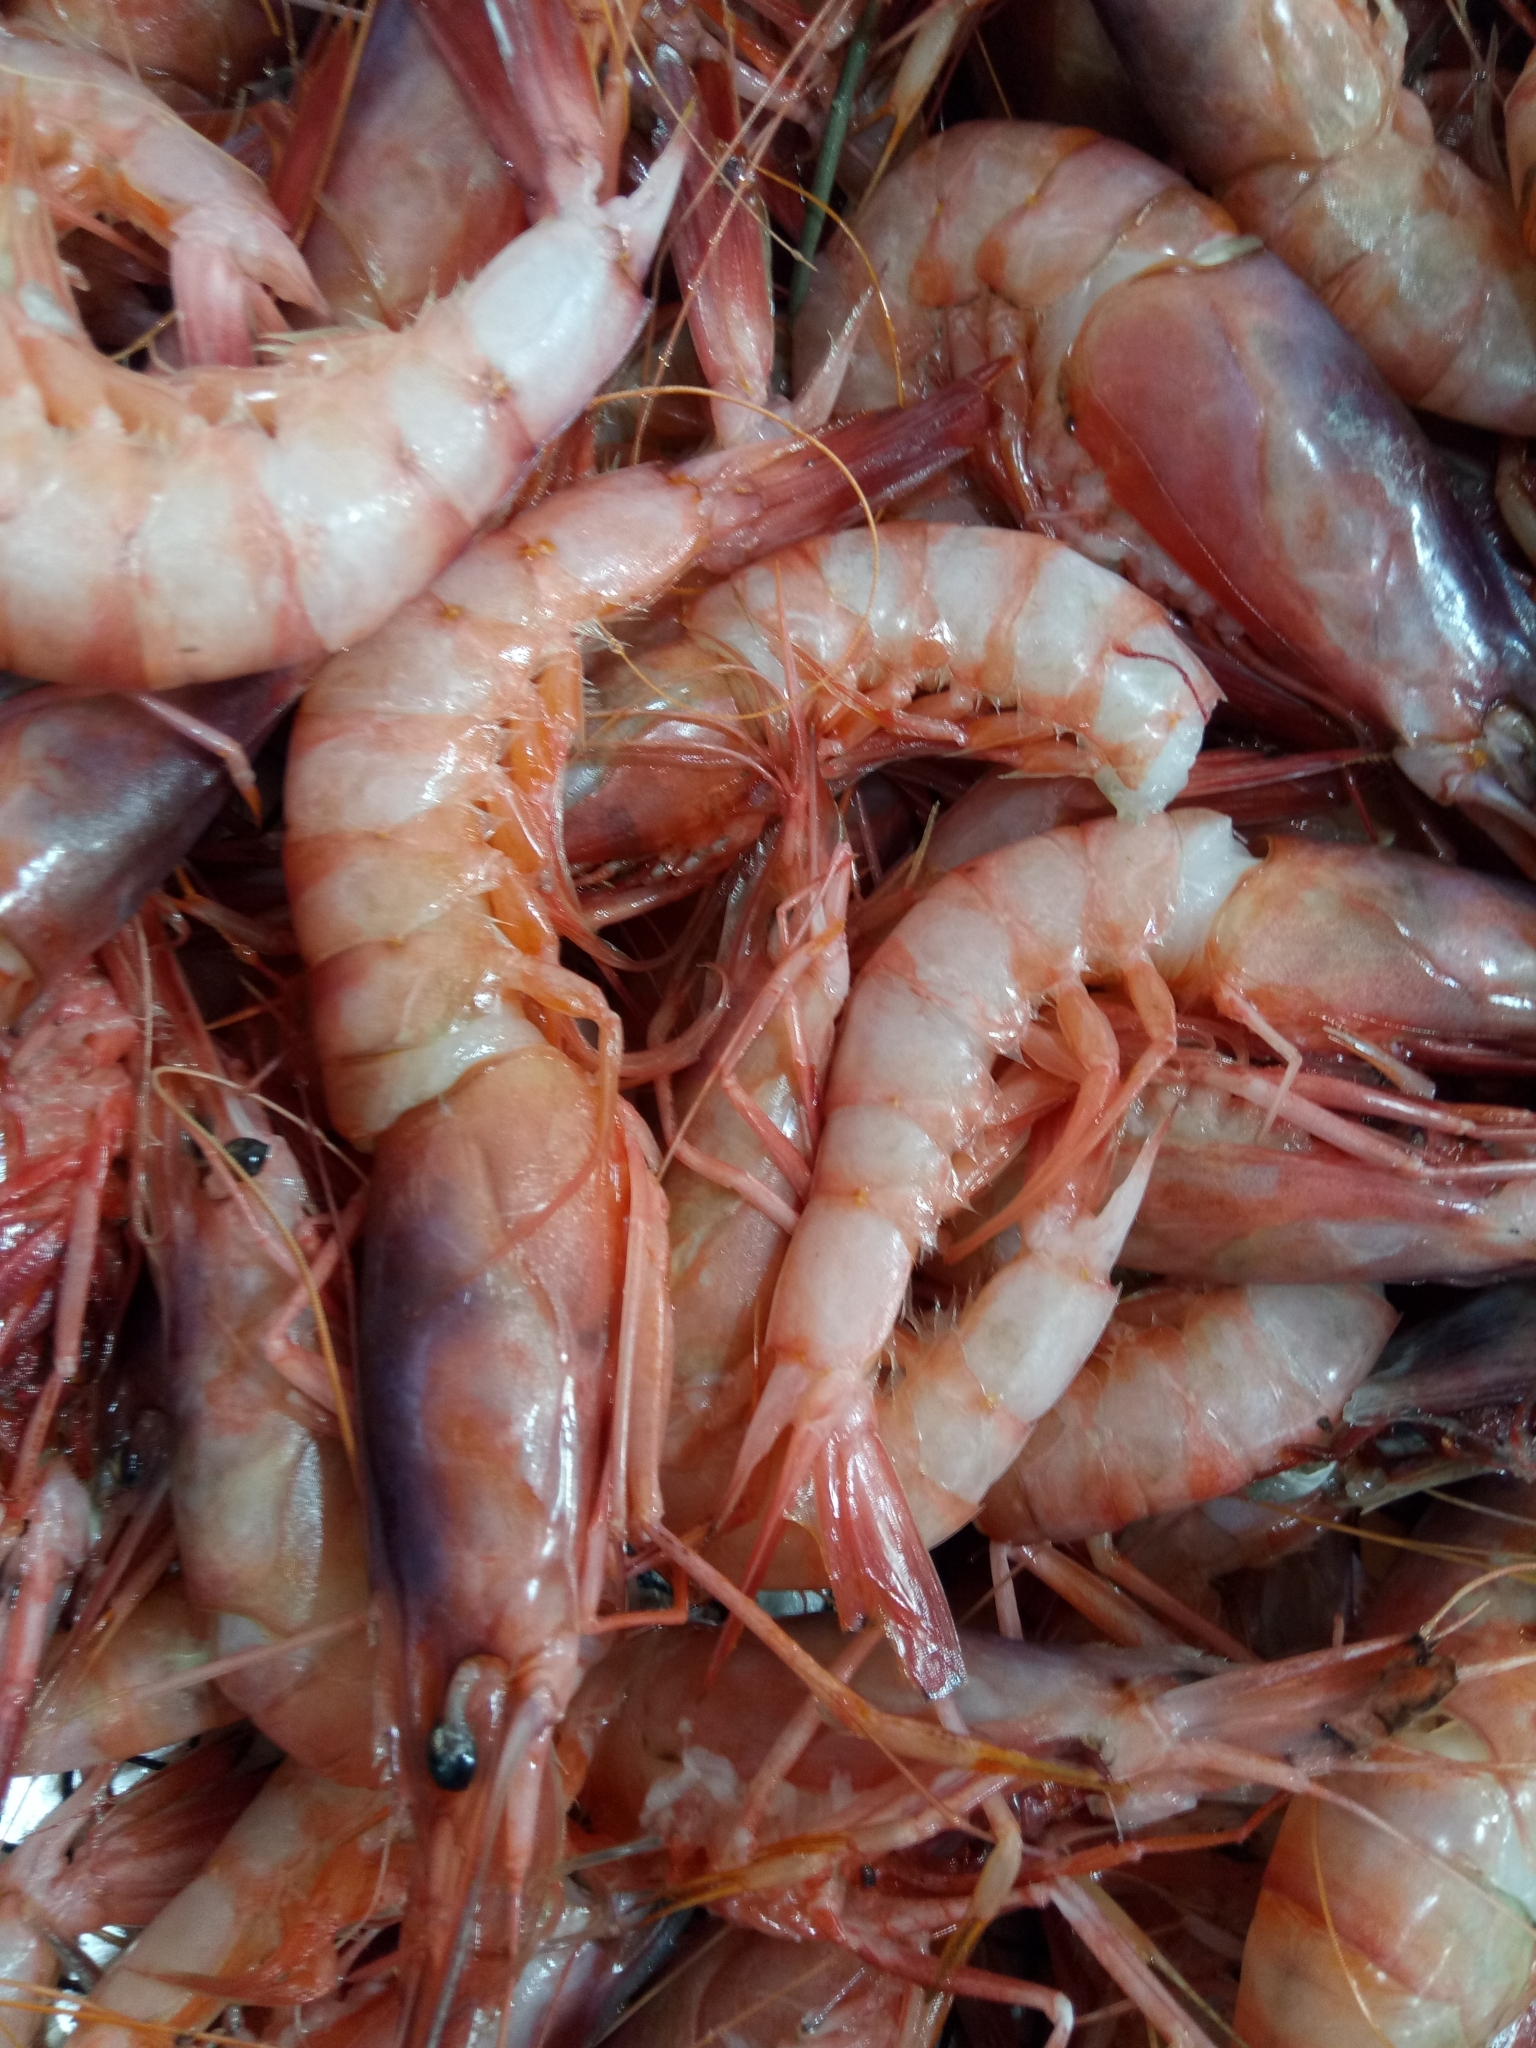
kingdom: Animalia
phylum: Arthropoda
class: Malacostraca
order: Decapoda
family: Aristeidae
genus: Aristeus
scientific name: Aristeus antennatus
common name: Blue and red shrimp
